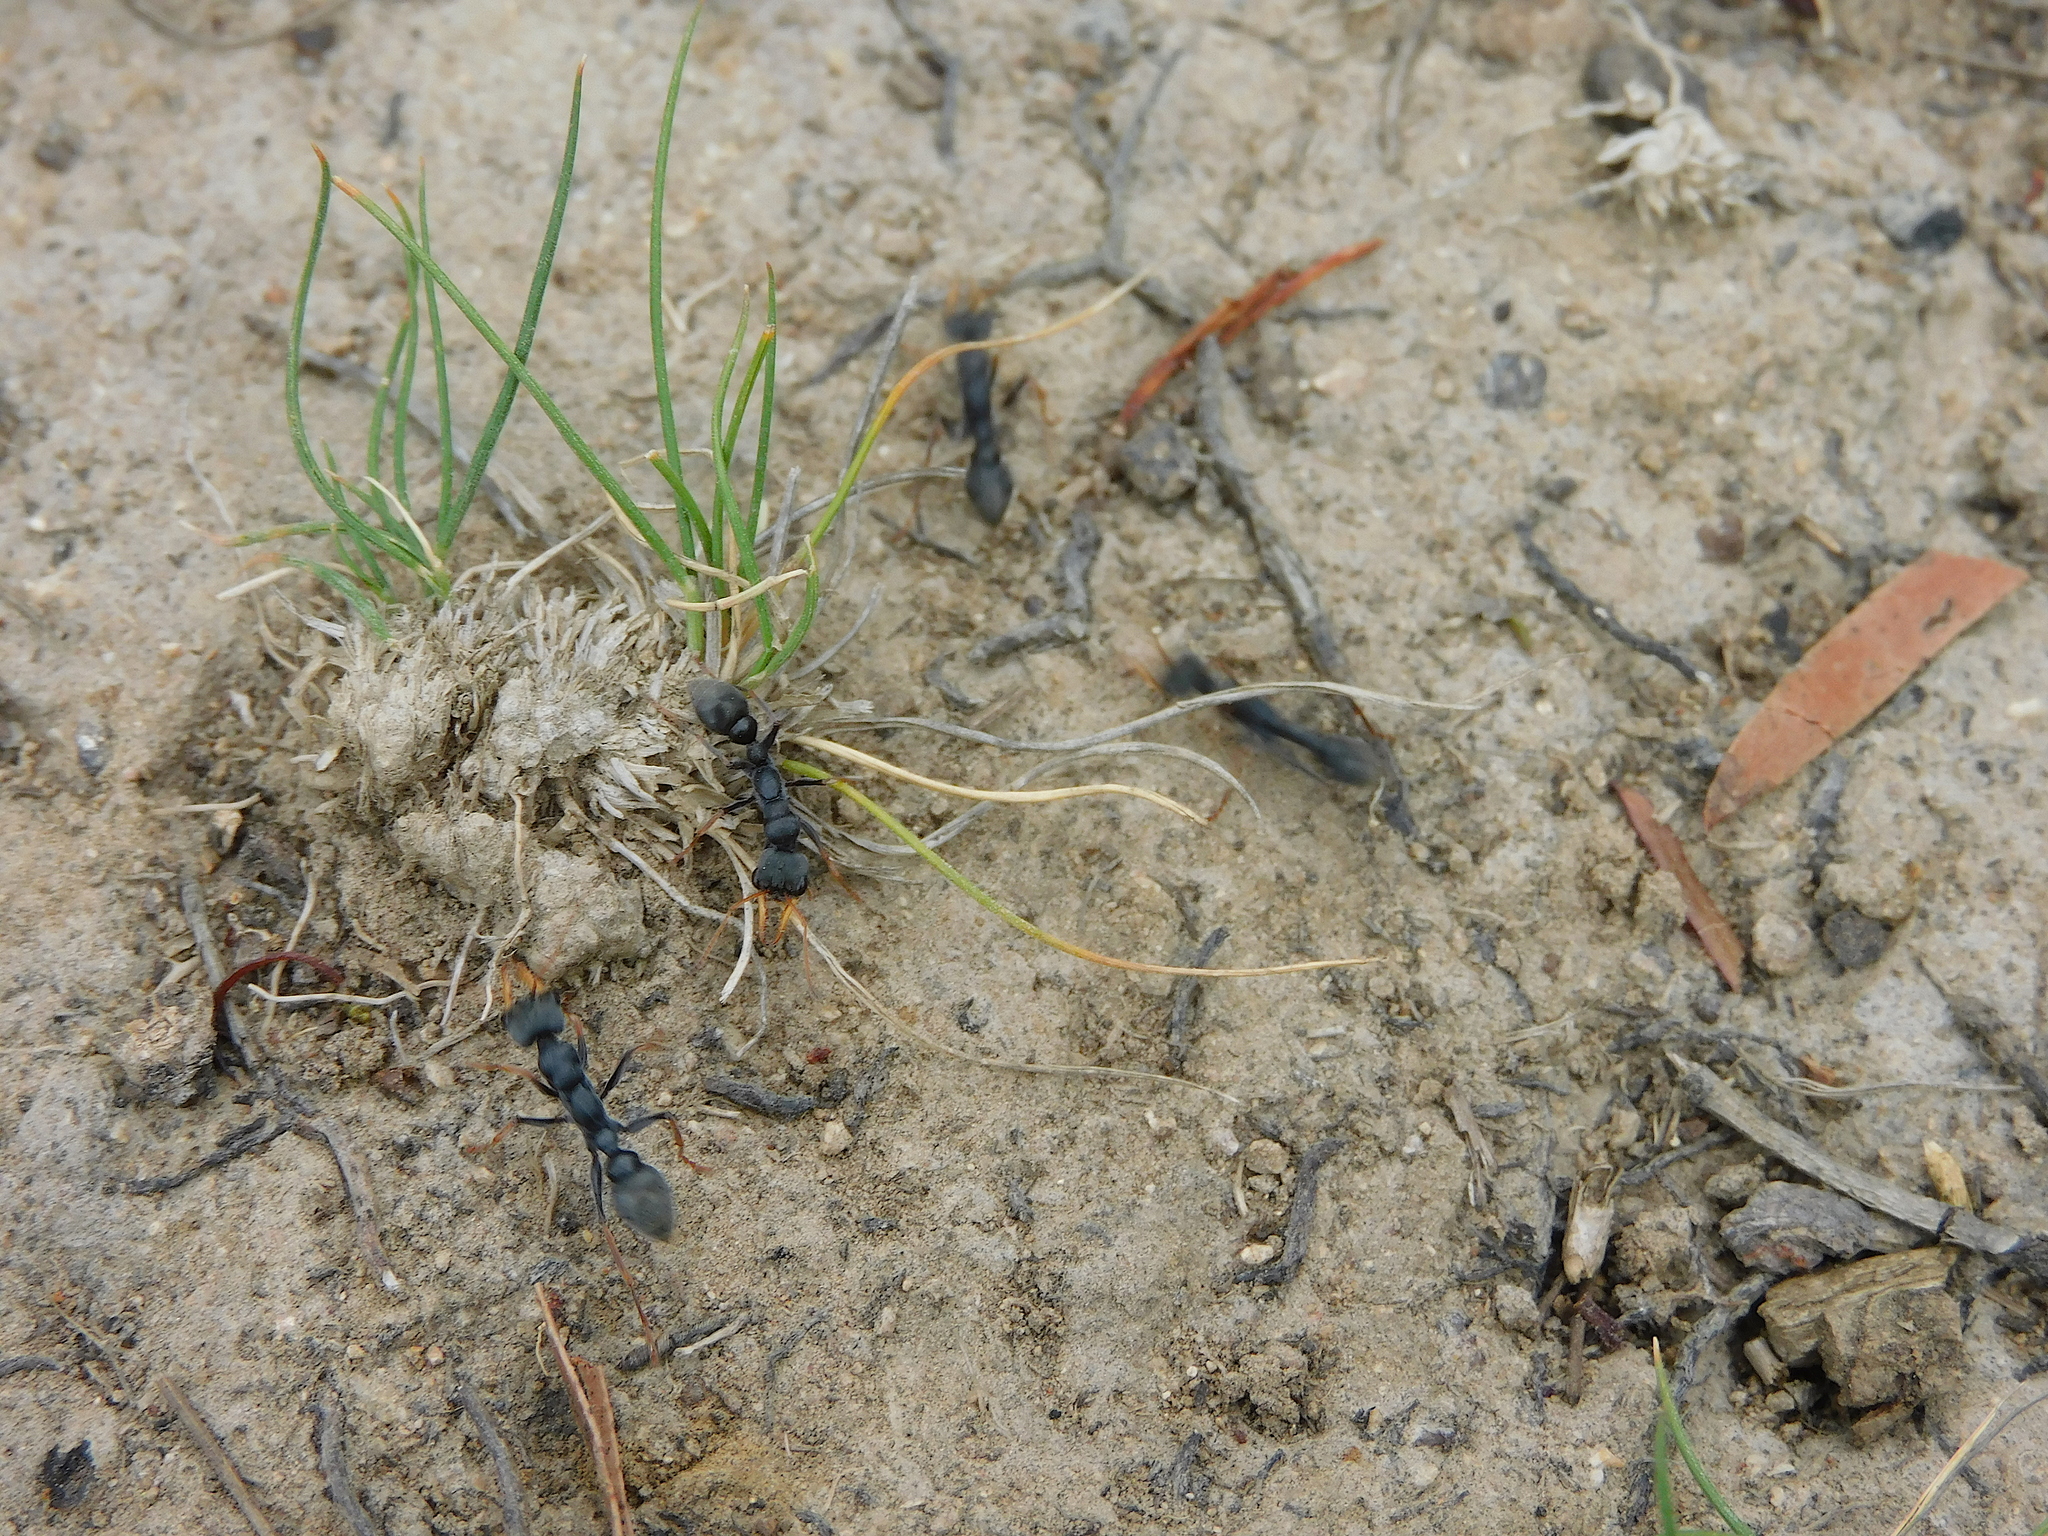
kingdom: Animalia
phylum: Arthropoda
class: Insecta
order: Hymenoptera
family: Formicidae
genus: Myrmecia
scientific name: Myrmecia pilosula
